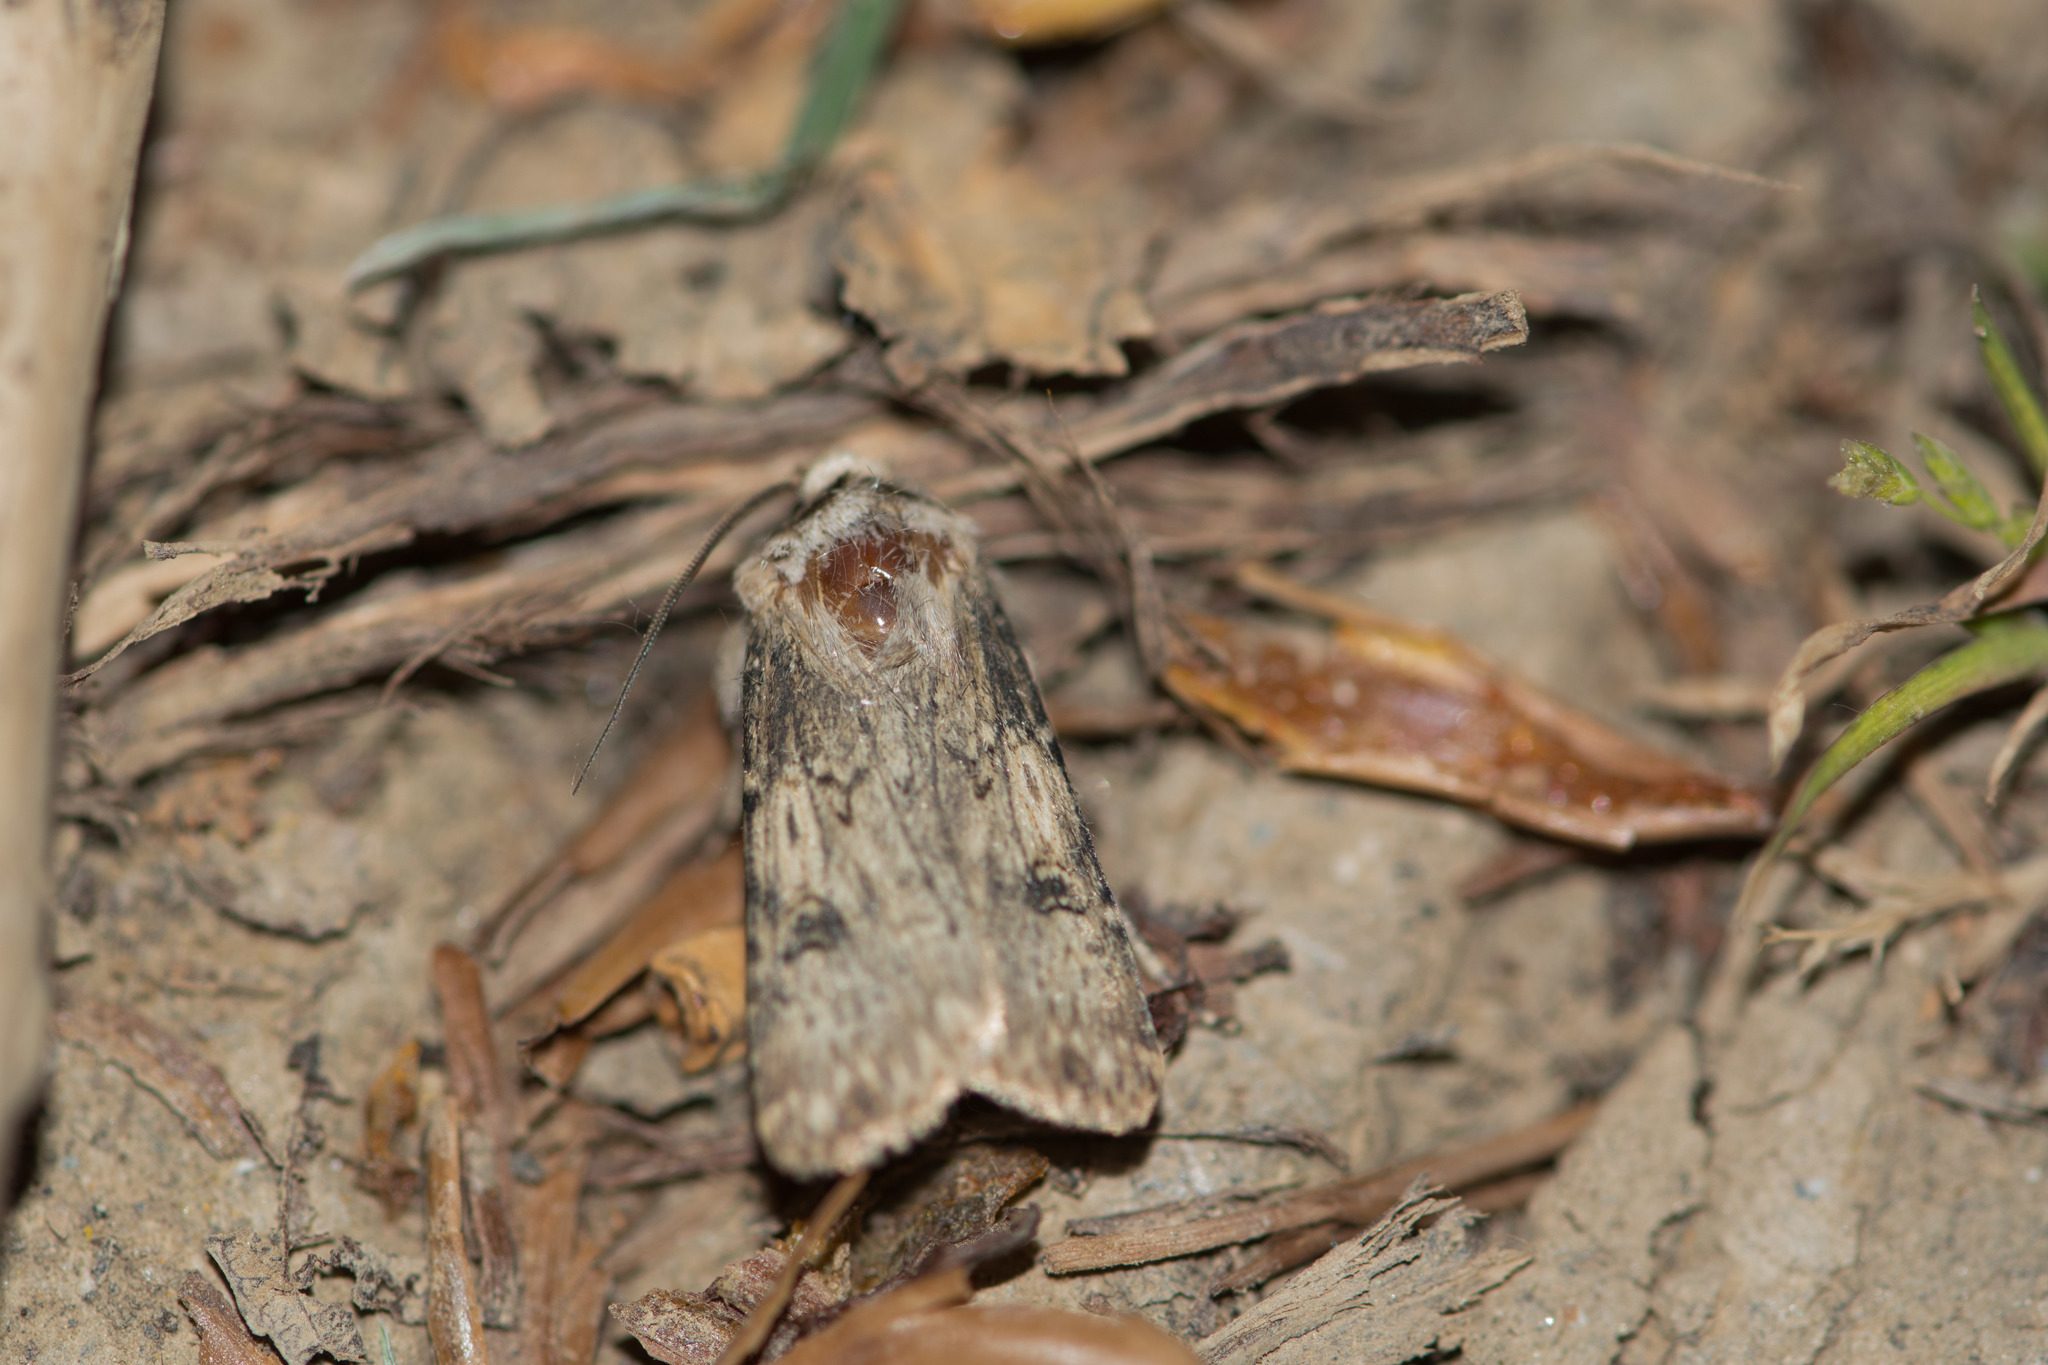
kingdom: Animalia
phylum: Arthropoda
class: Insecta
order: Lepidoptera
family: Noctuidae
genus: Agrotis
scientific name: Agrotis puta
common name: Shuttle-shaped dart
